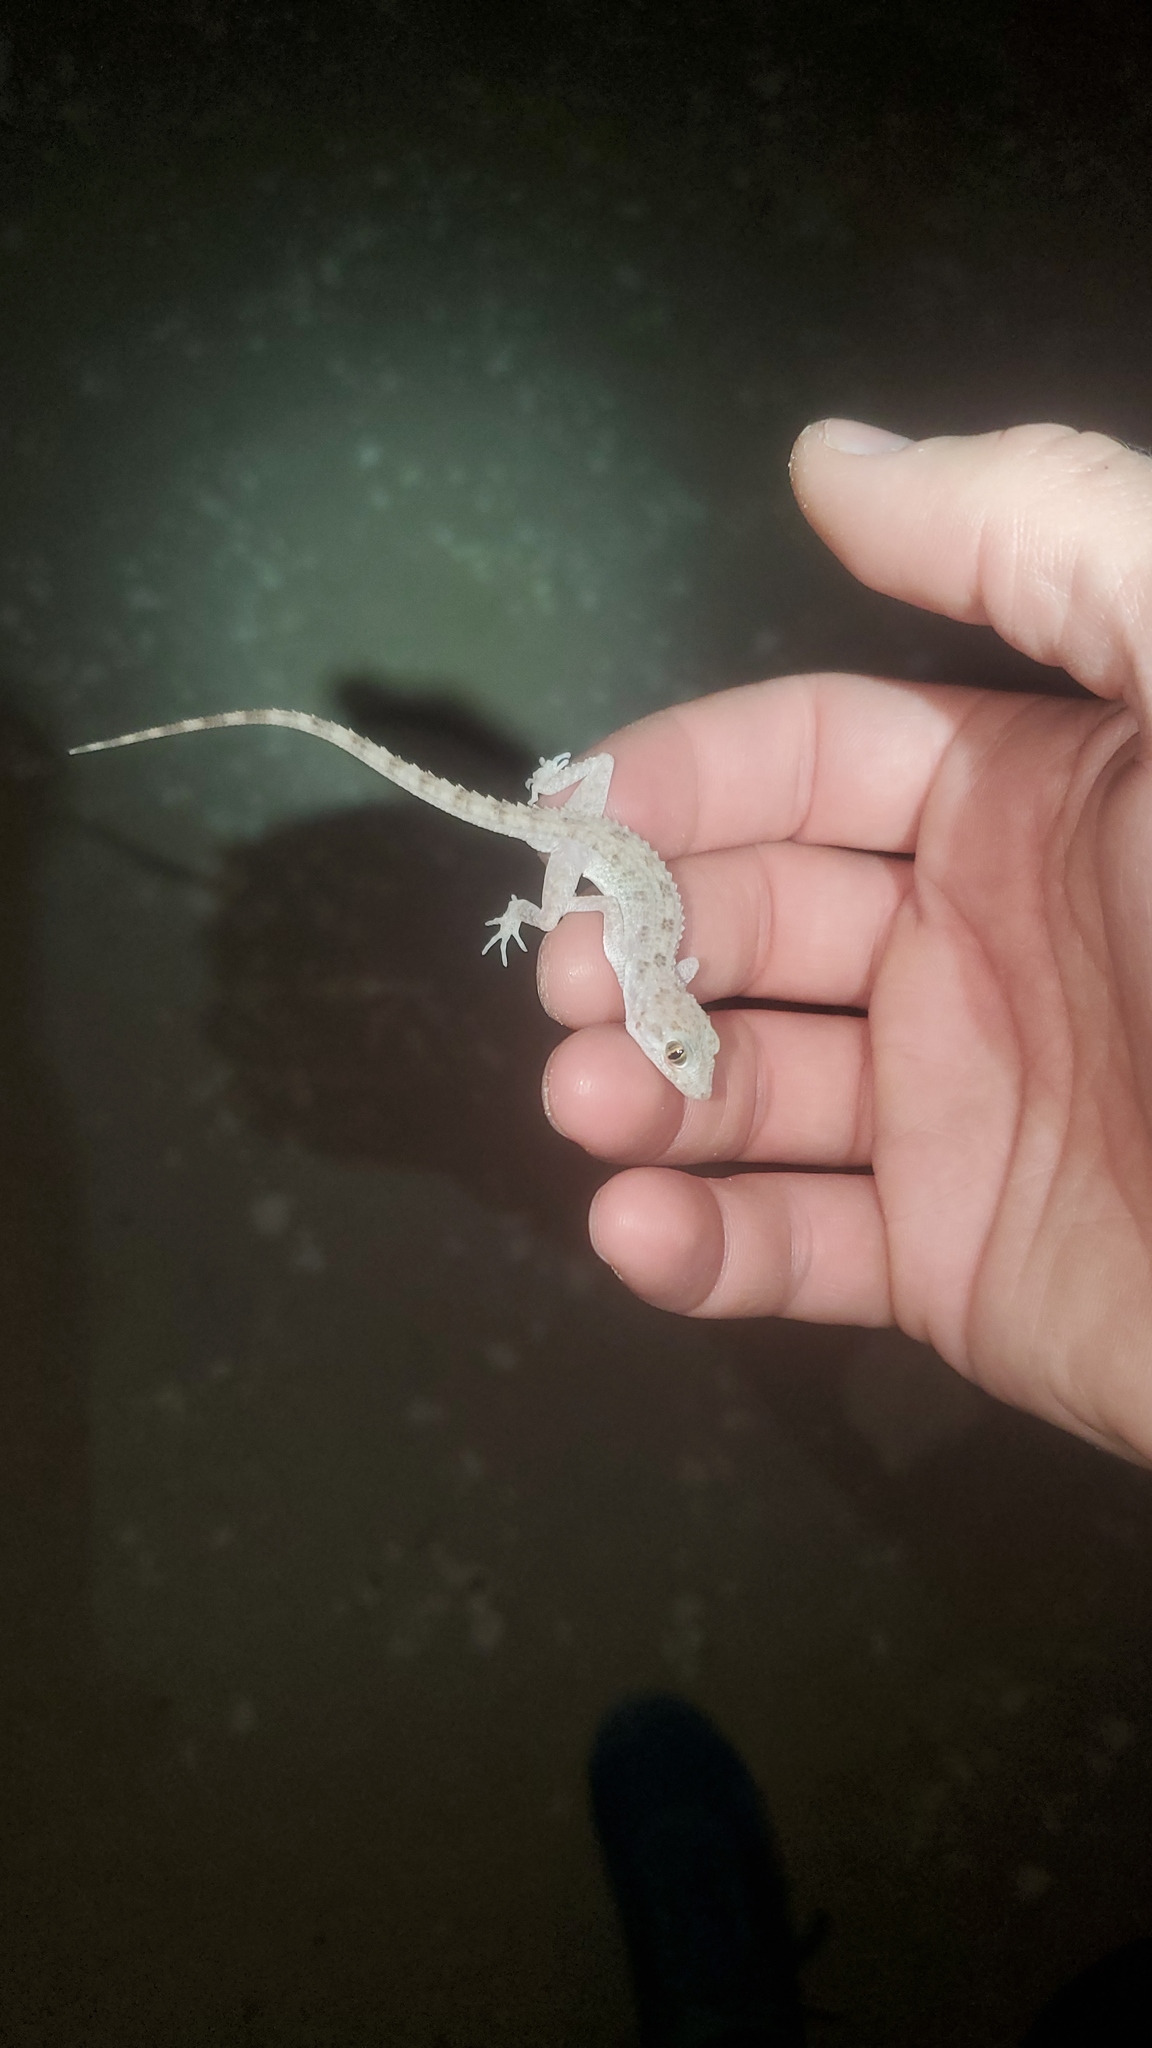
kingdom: Animalia
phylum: Chordata
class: Squamata
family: Gekkonidae
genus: Cyrtopodion
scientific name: Cyrtopodion scabrum
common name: Rough-tailed gecko
